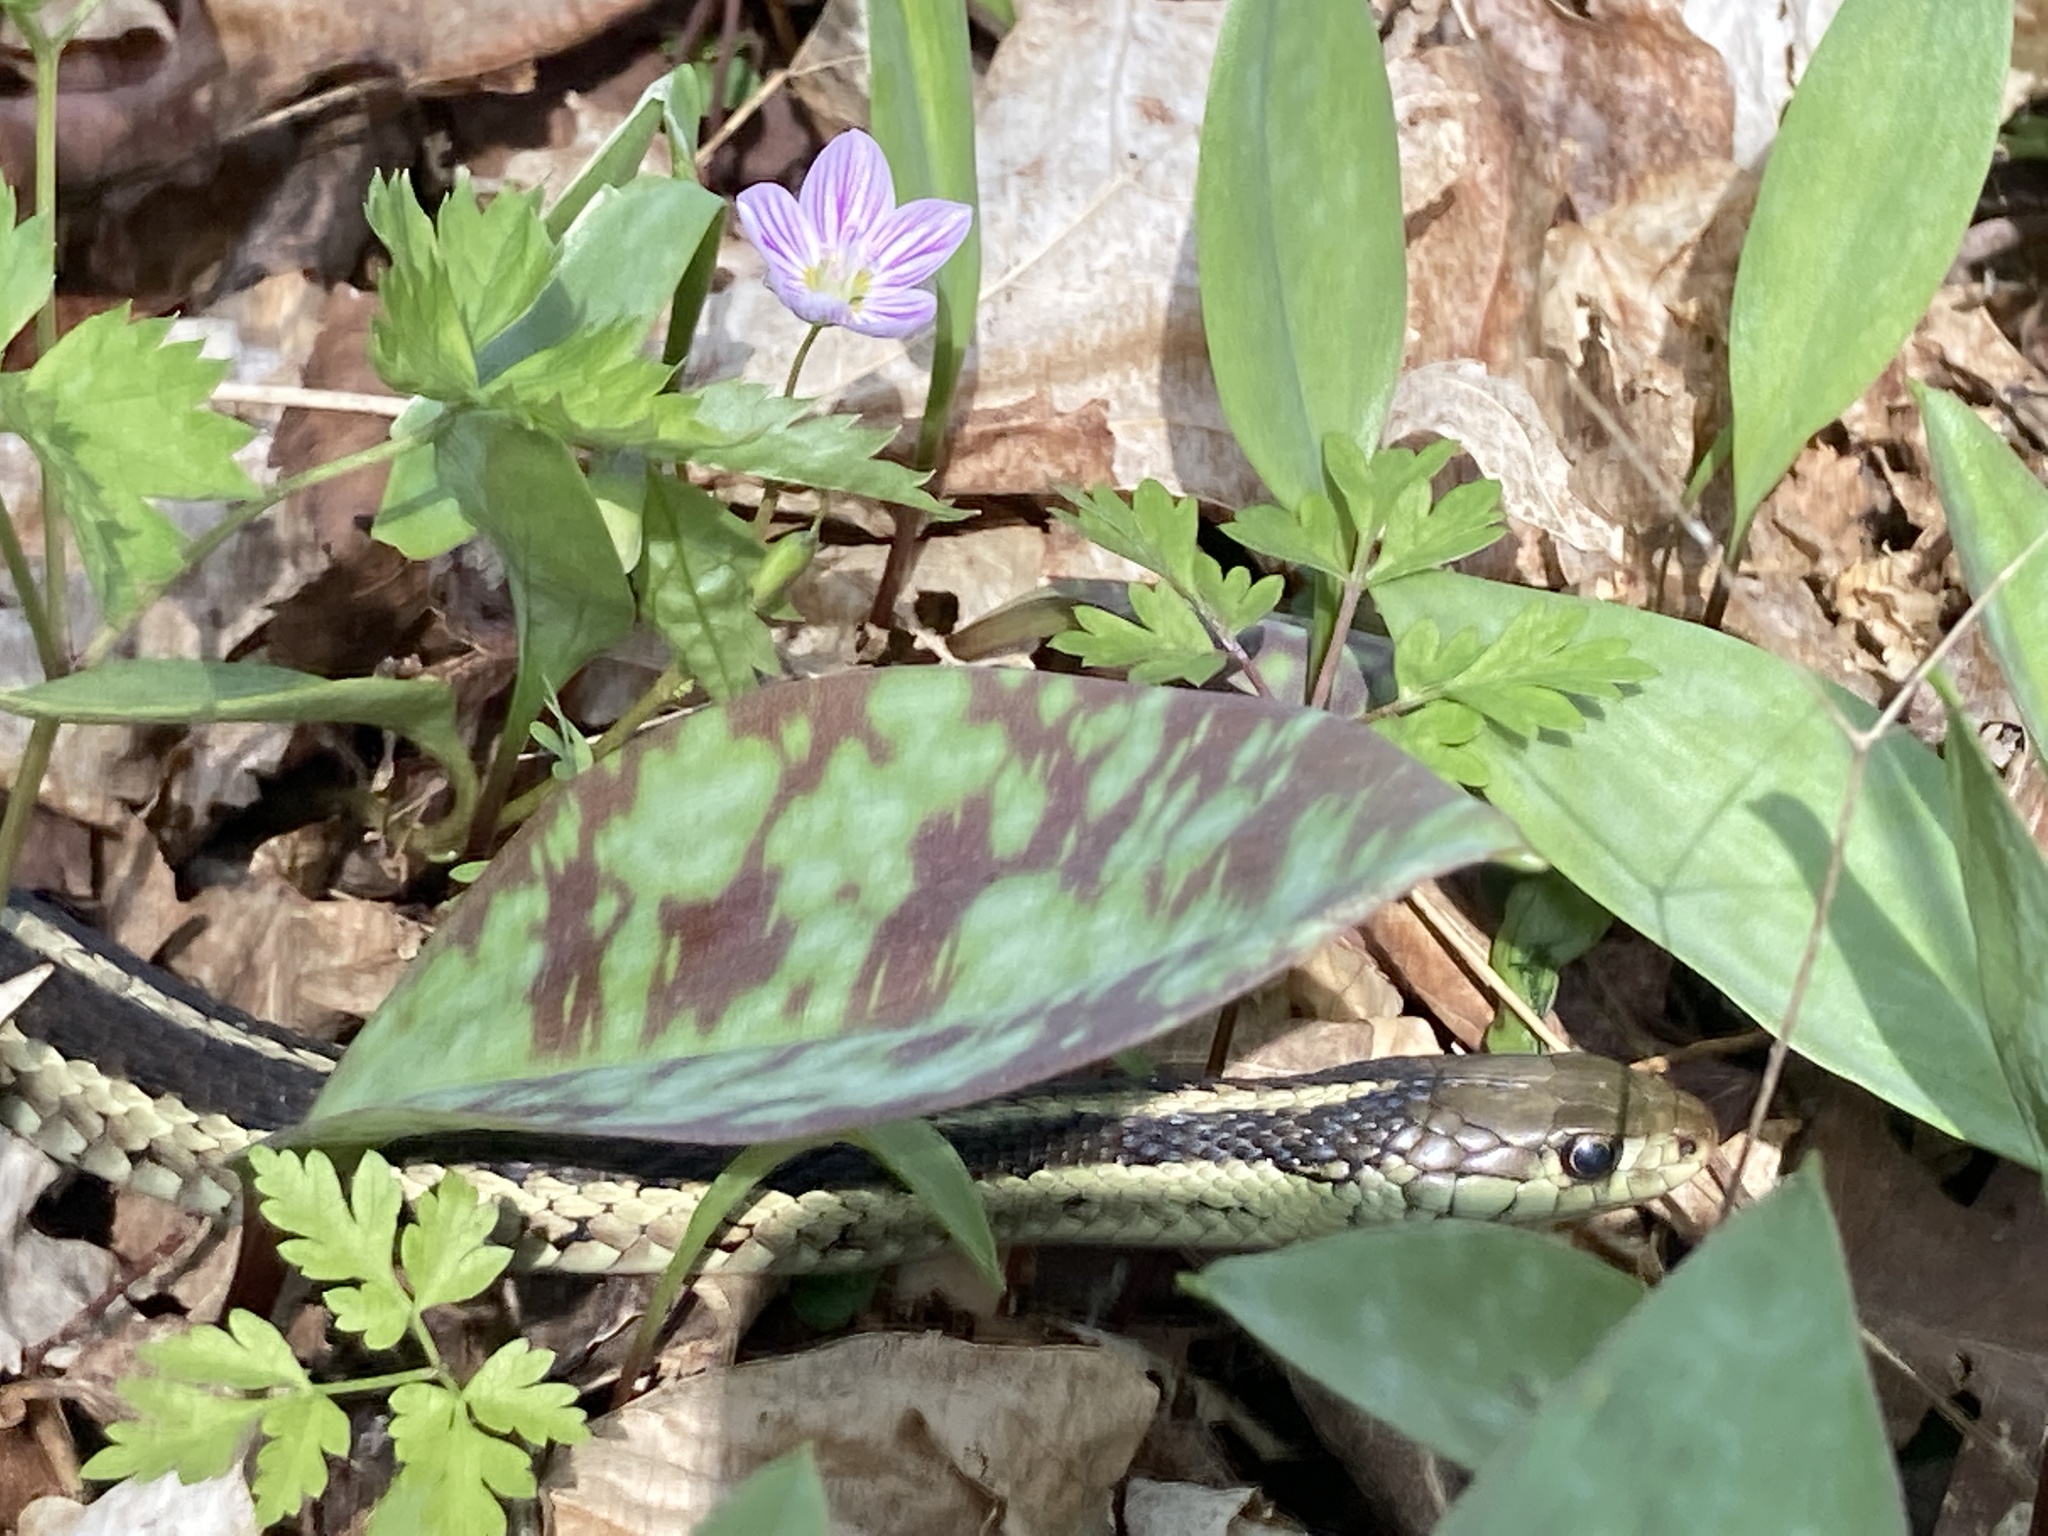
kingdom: Animalia
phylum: Chordata
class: Squamata
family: Colubridae
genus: Thamnophis
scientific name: Thamnophis sirtalis
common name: Common garter snake
